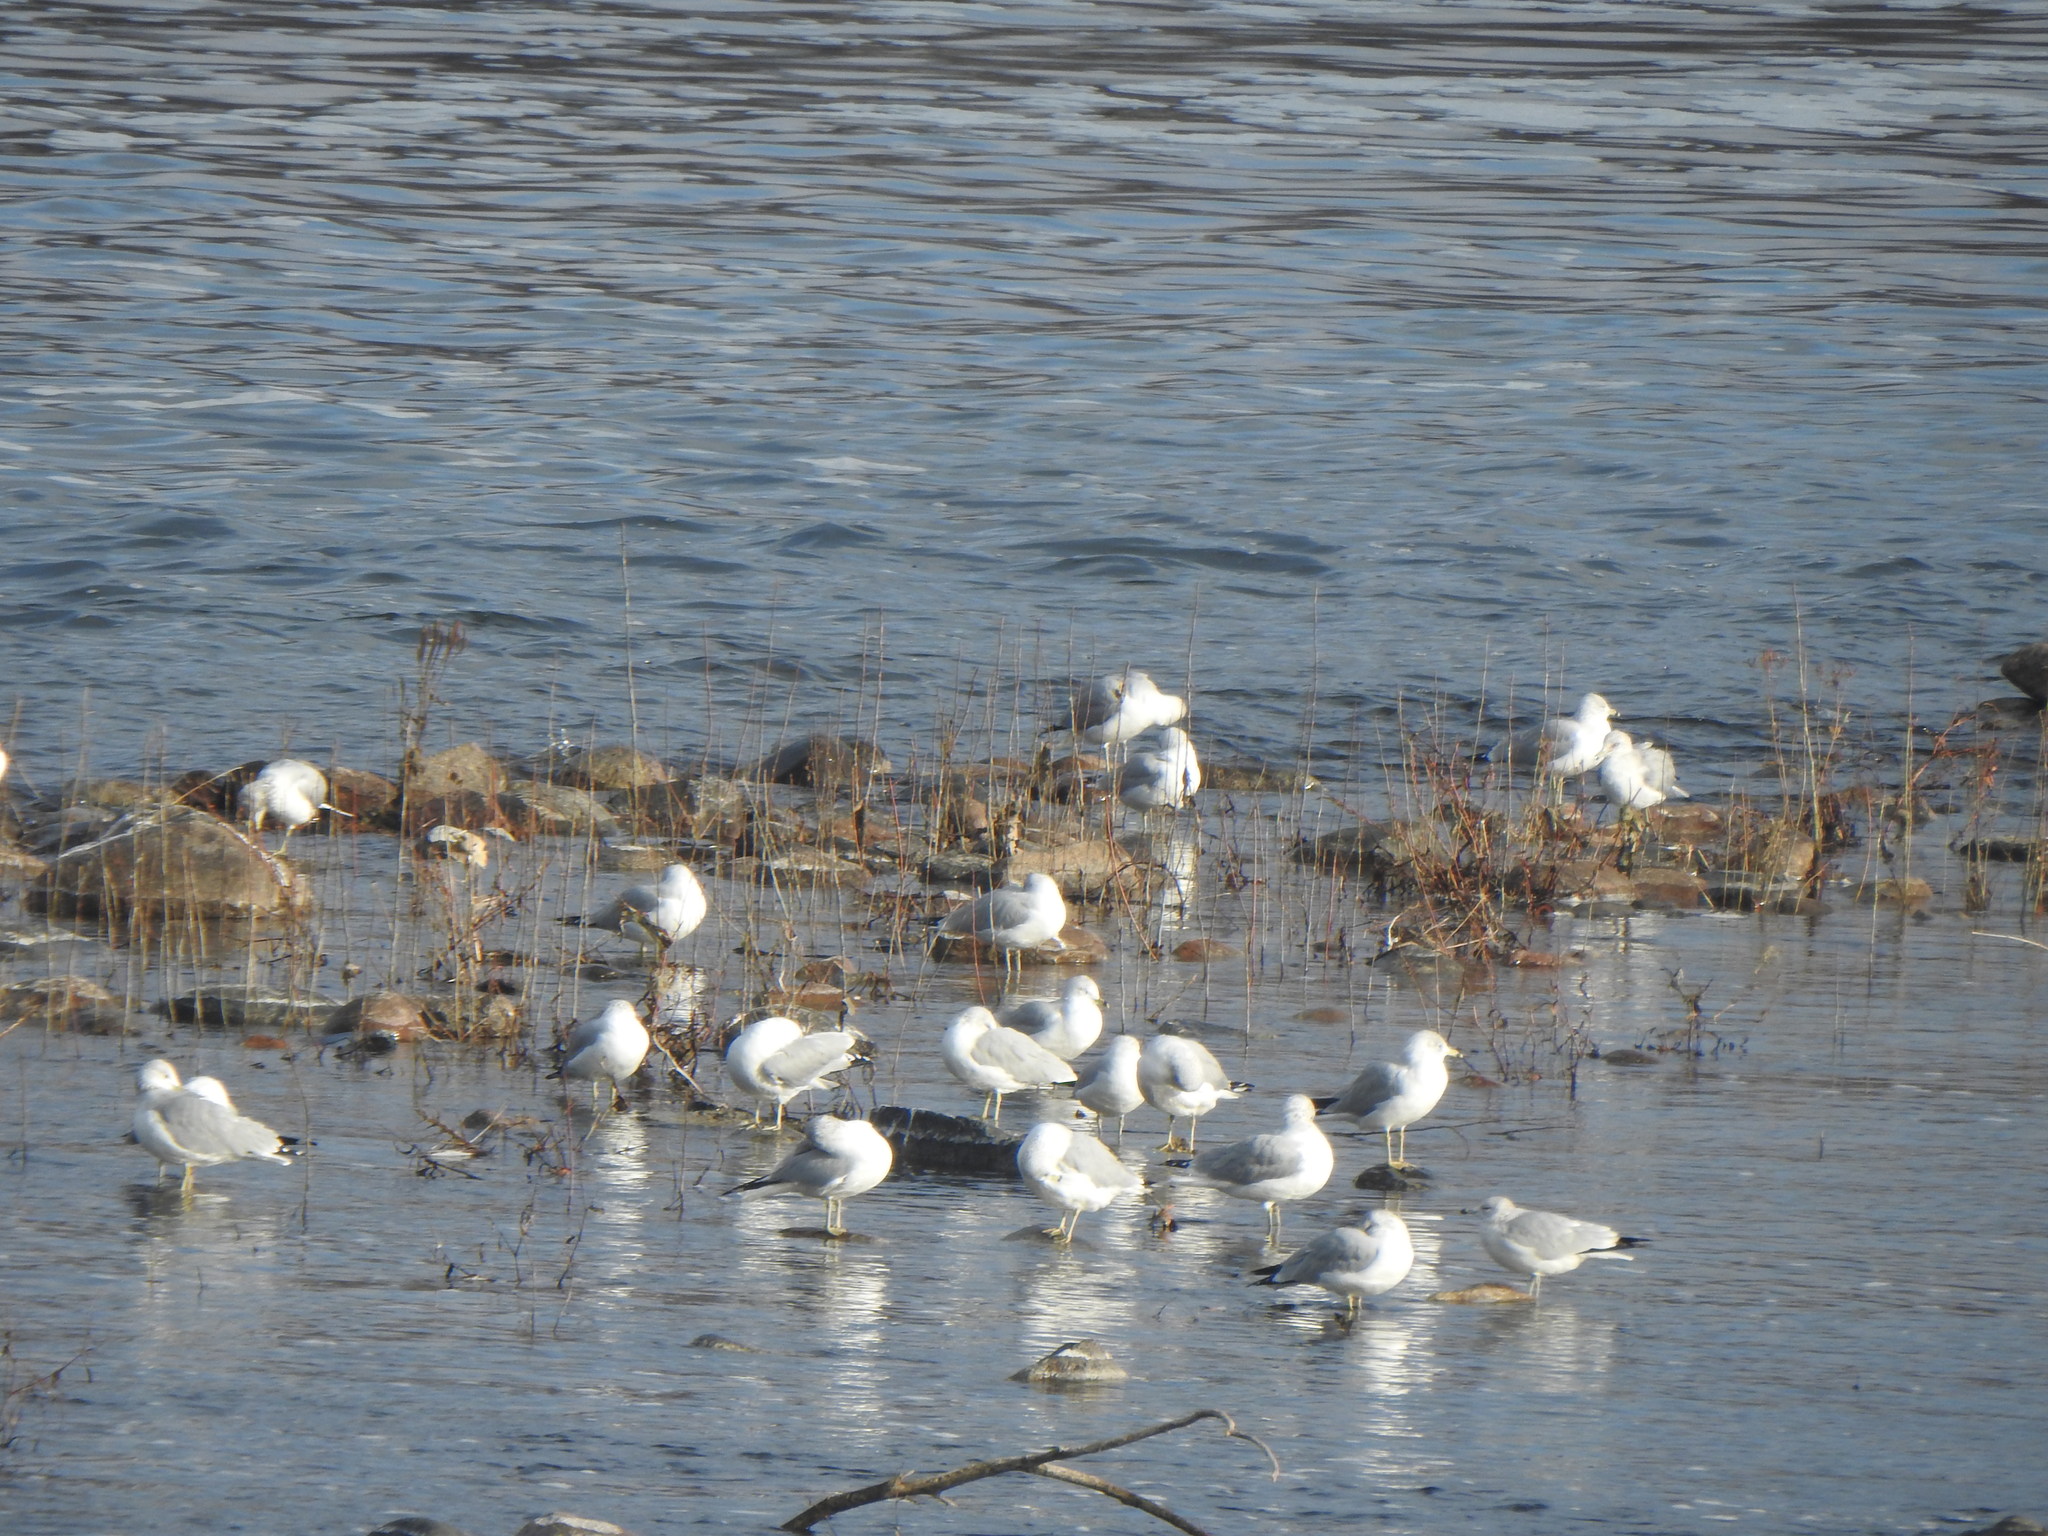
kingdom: Animalia
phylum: Chordata
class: Aves
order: Charadriiformes
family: Laridae
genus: Larus
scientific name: Larus delawarensis
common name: Ring-billed gull
